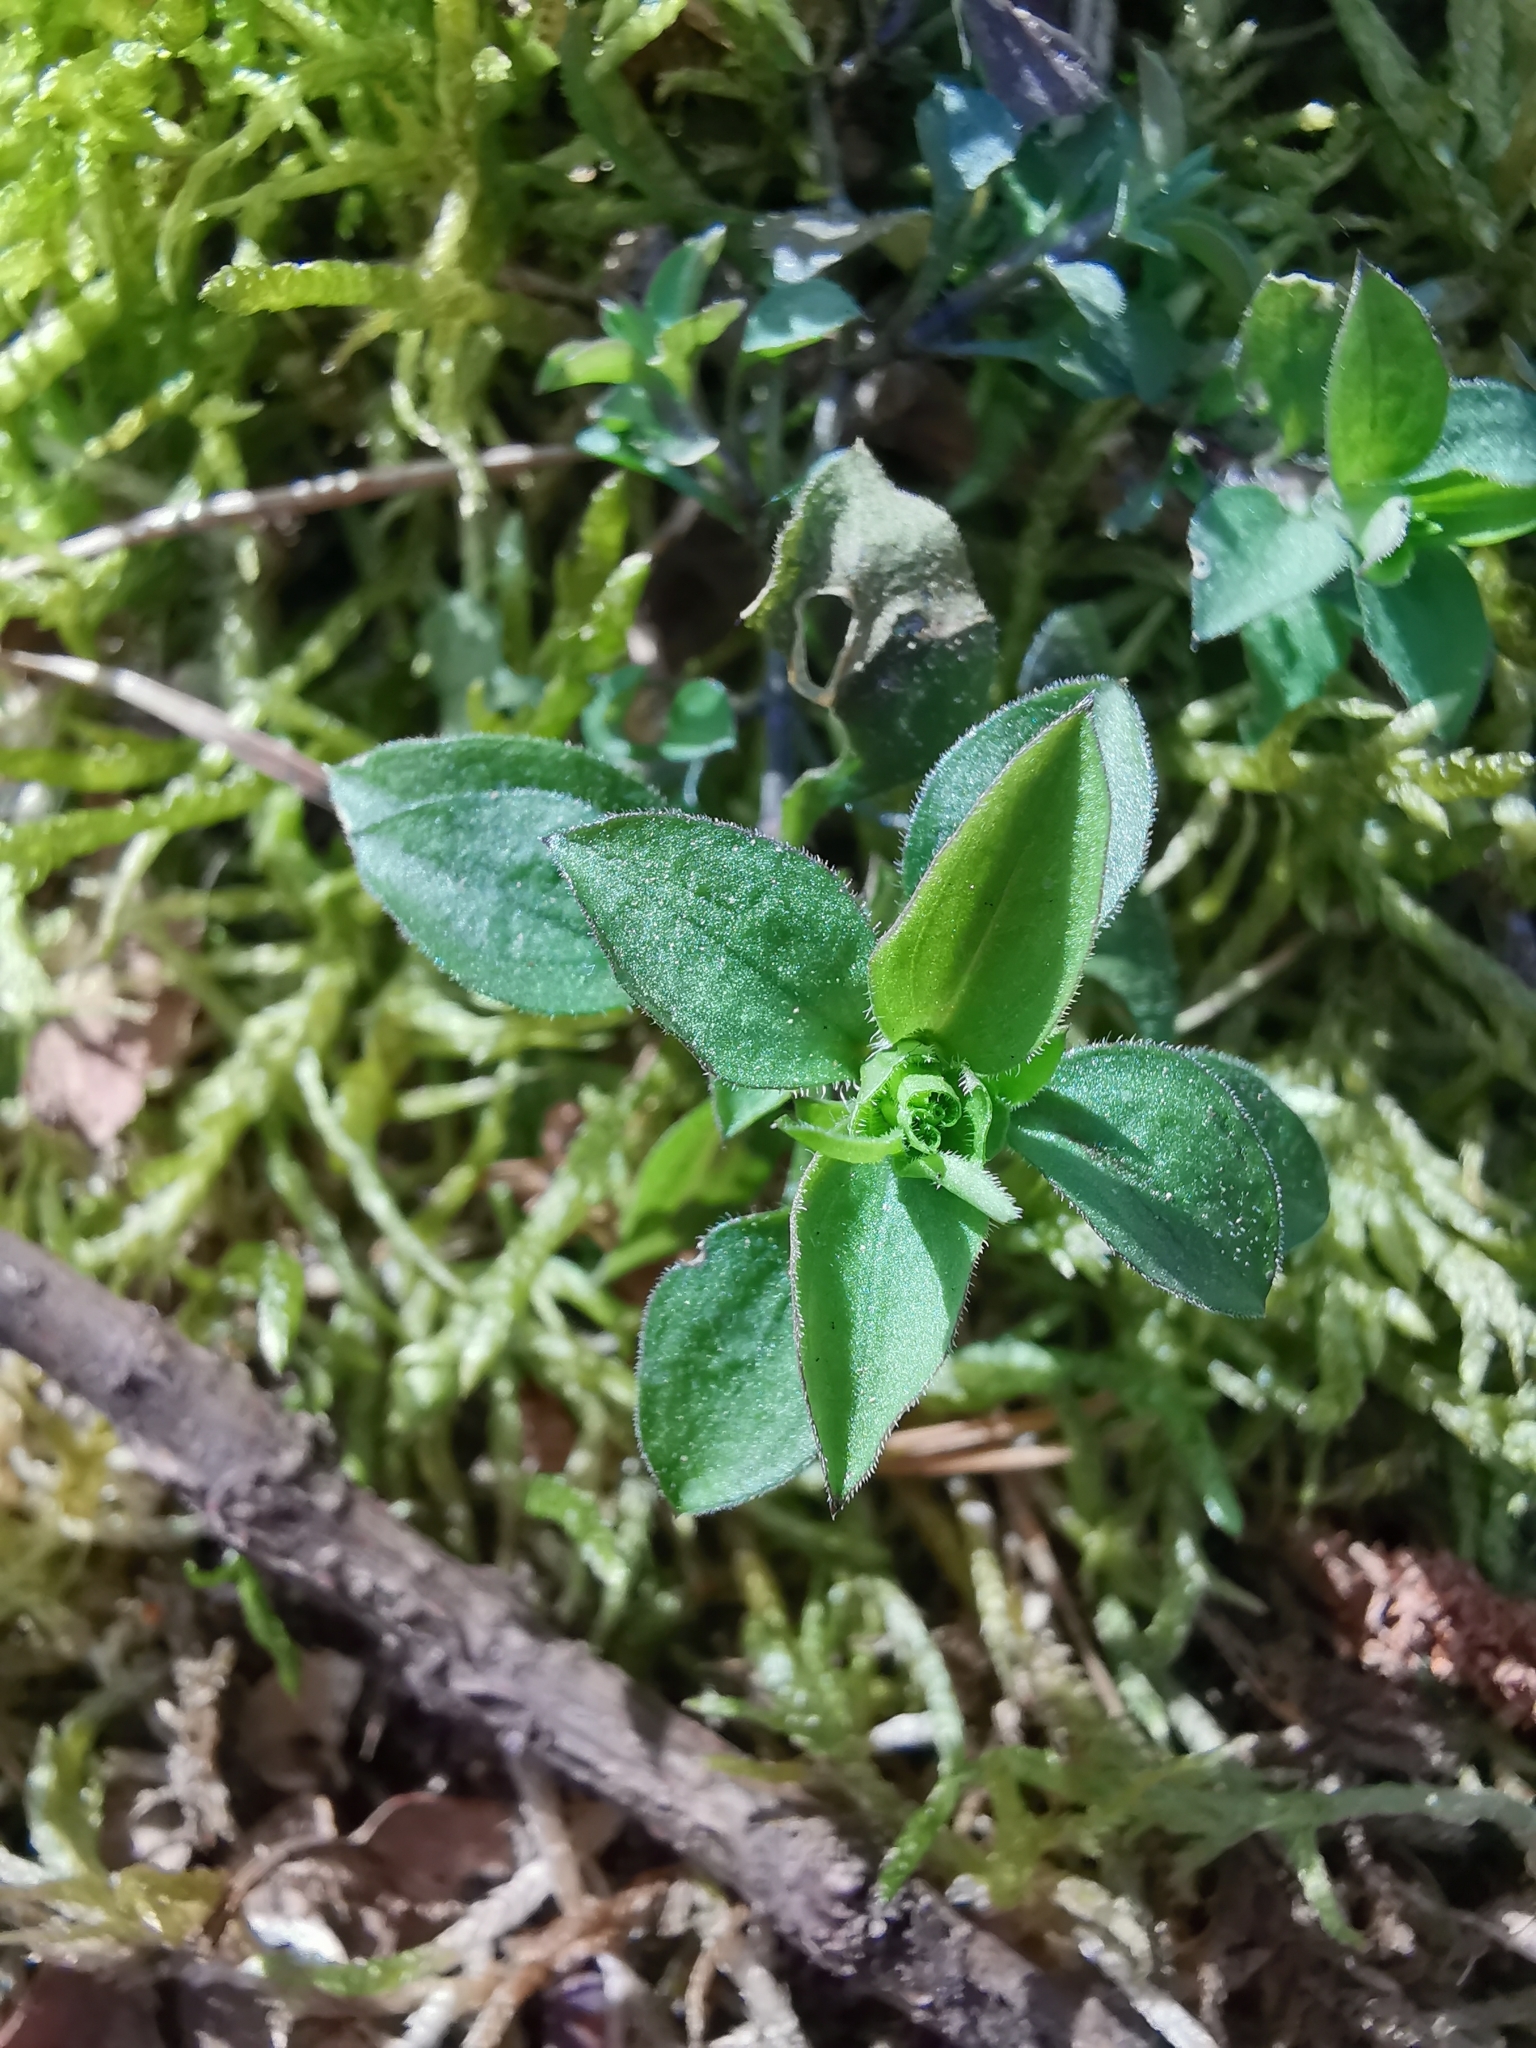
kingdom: Plantae
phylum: Tracheophyta
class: Magnoliopsida
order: Caryophyllales
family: Caryophyllaceae
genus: Moehringia
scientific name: Moehringia trinervia
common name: Three-nerved sandwort
